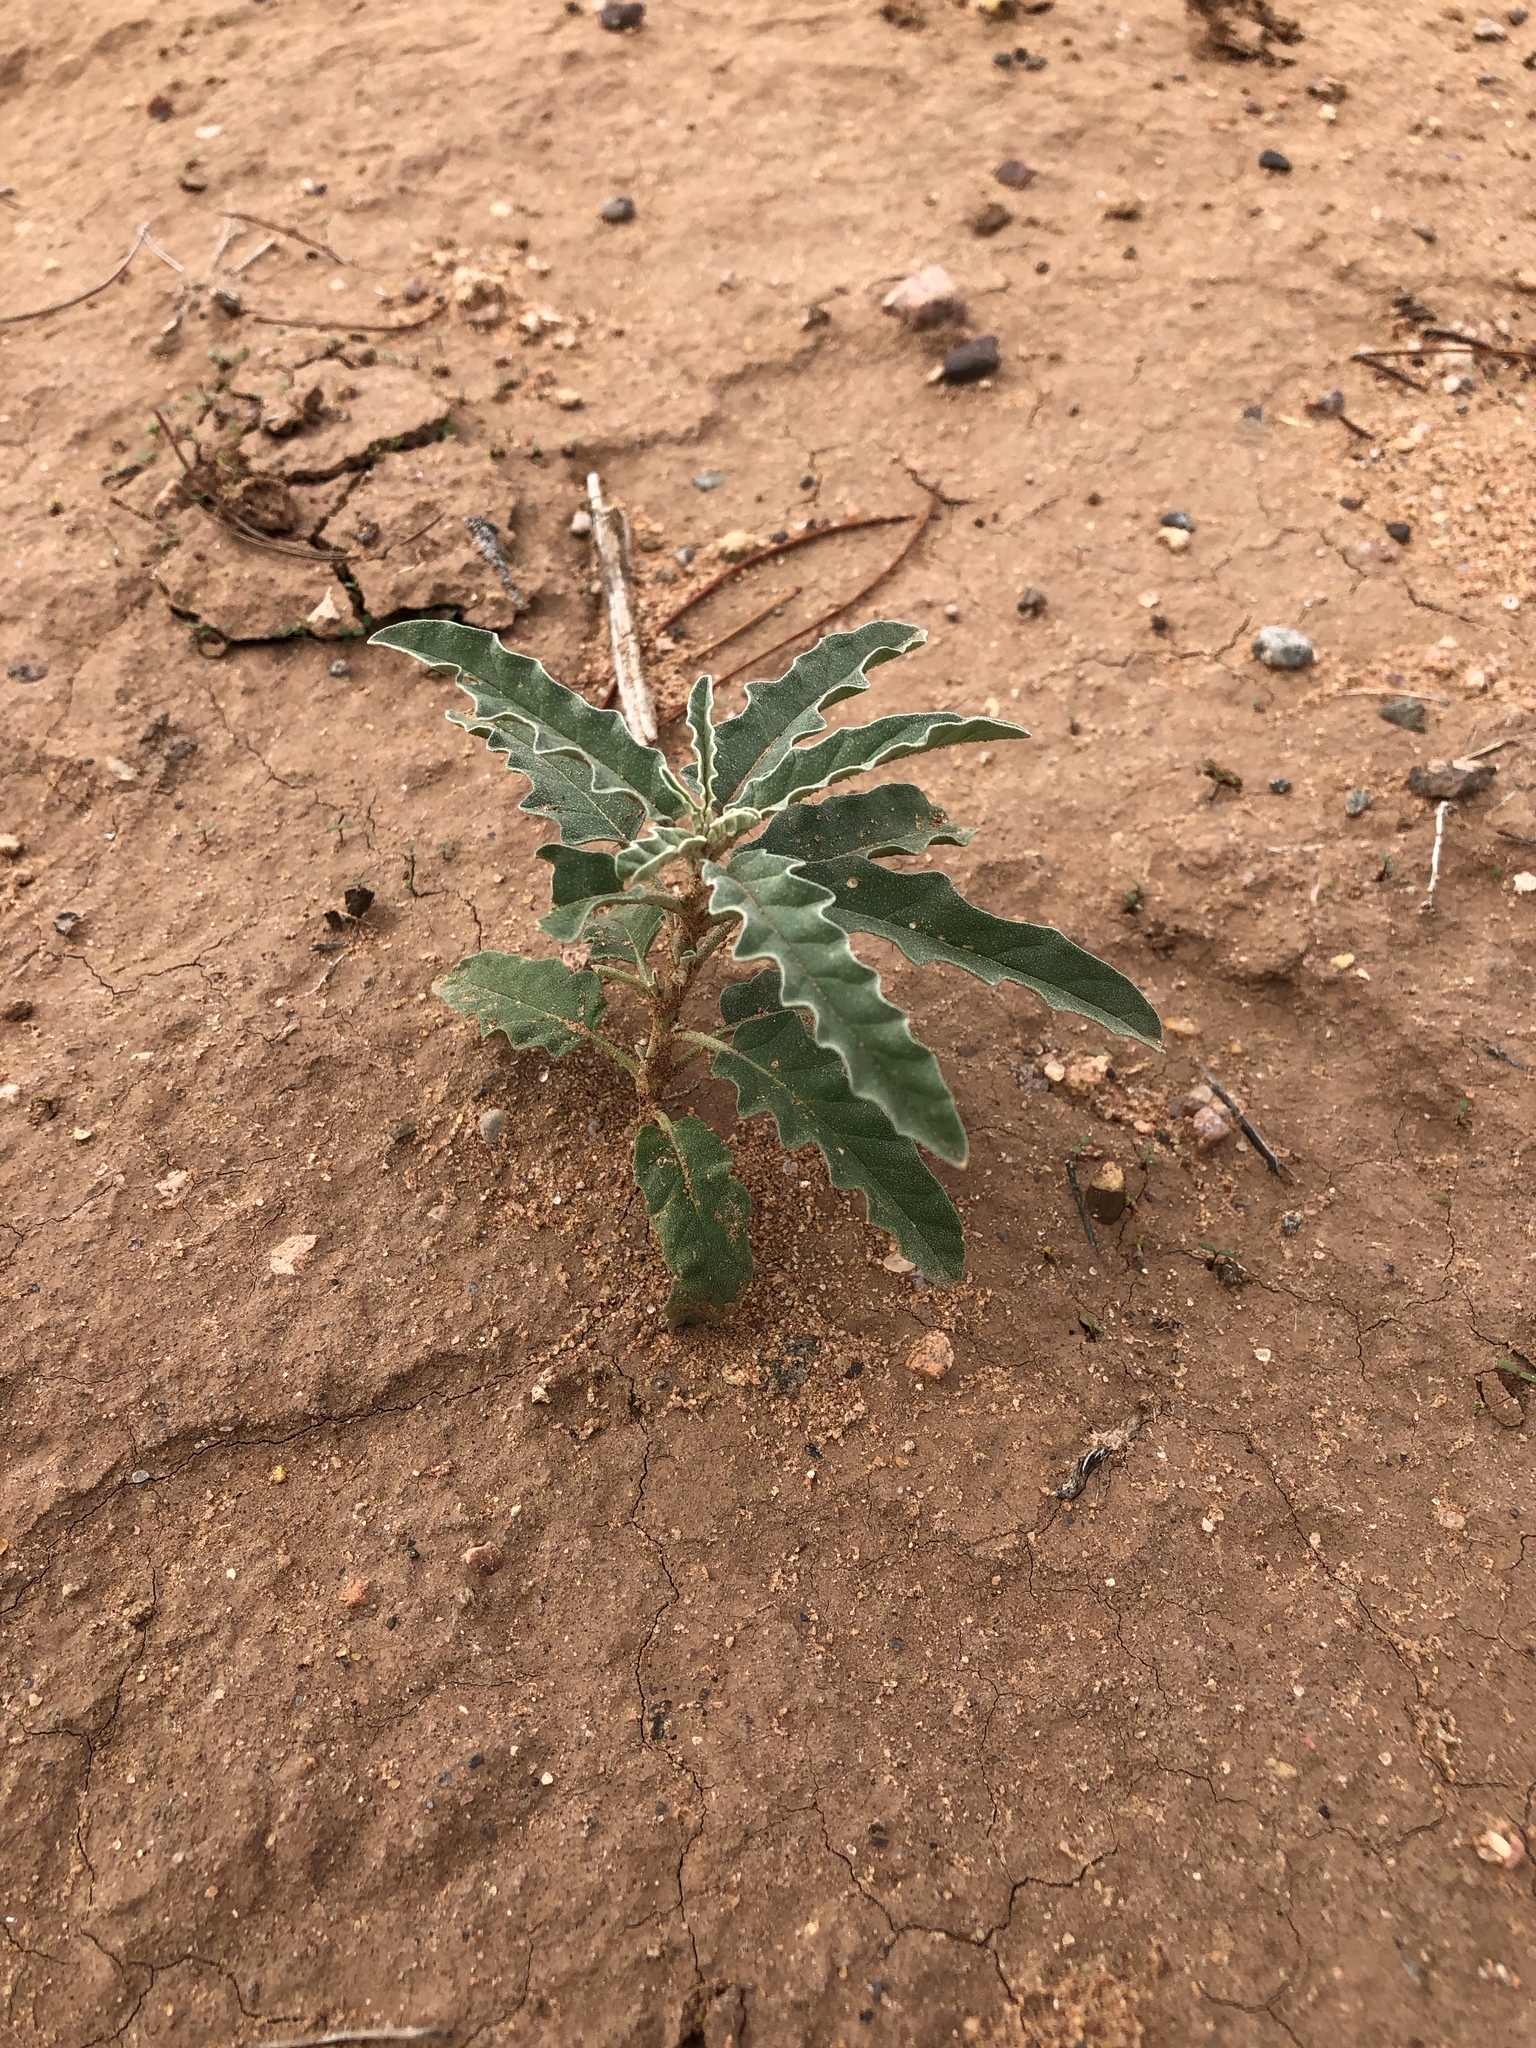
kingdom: Plantae
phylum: Tracheophyta
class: Magnoliopsida
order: Solanales
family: Solanaceae
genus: Solanum
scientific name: Solanum elaeagnifolium
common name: Silverleaf nightshade
